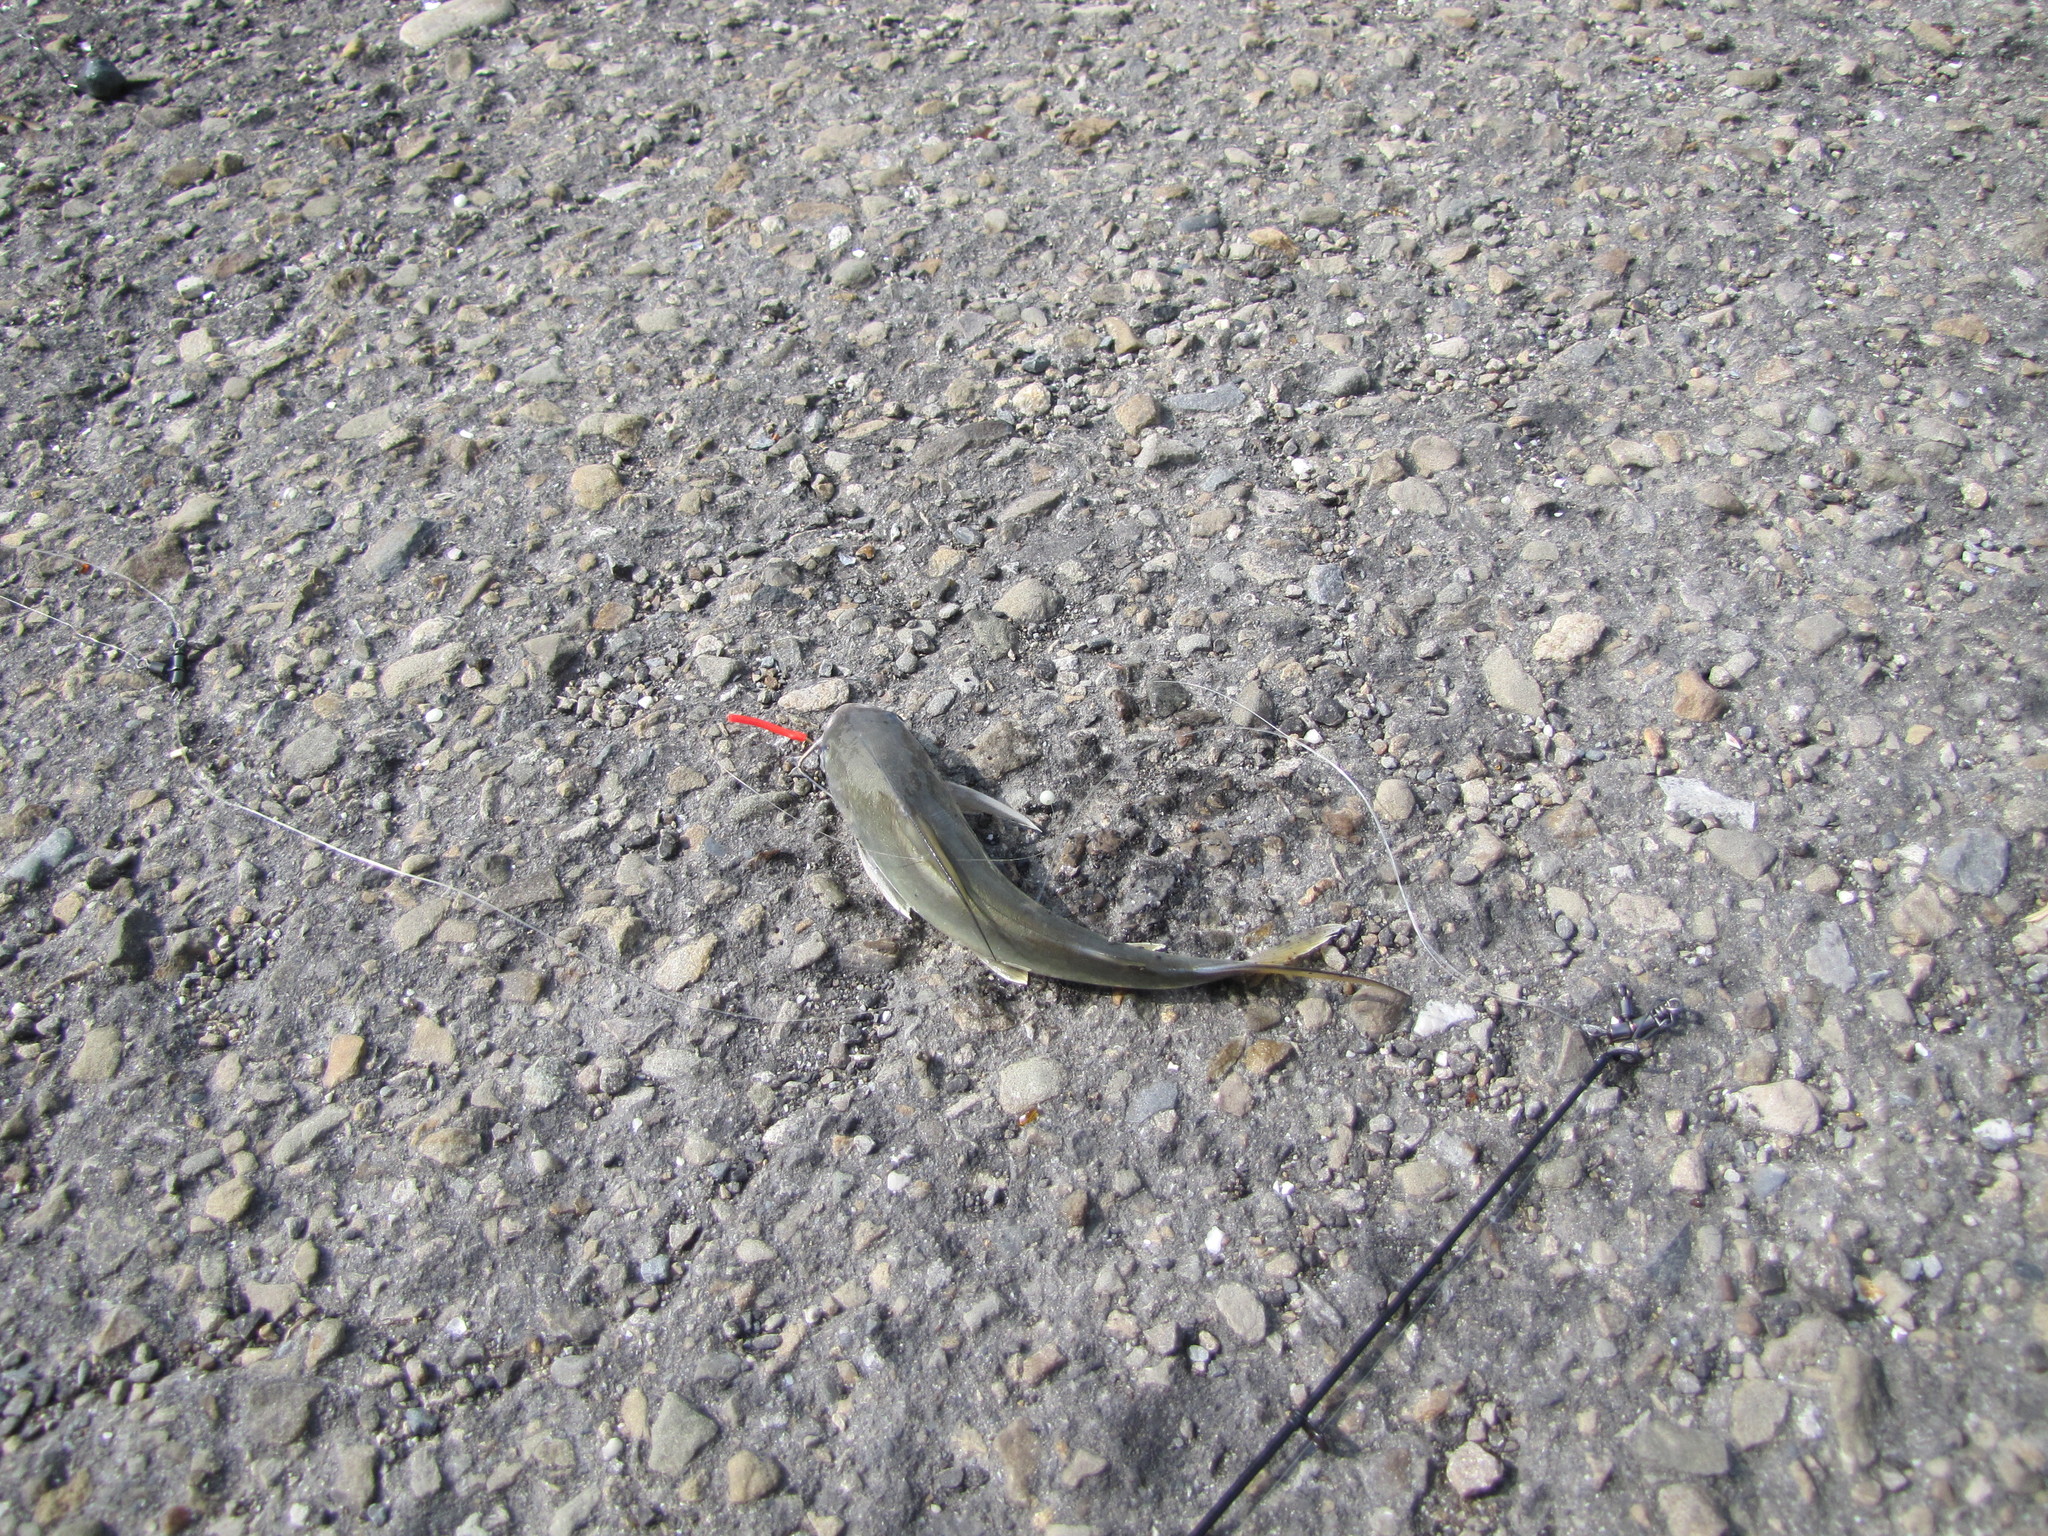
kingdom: Animalia
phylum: Chordata
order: Siluriformes
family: Ariidae
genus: Arius
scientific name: Arius maculatus
